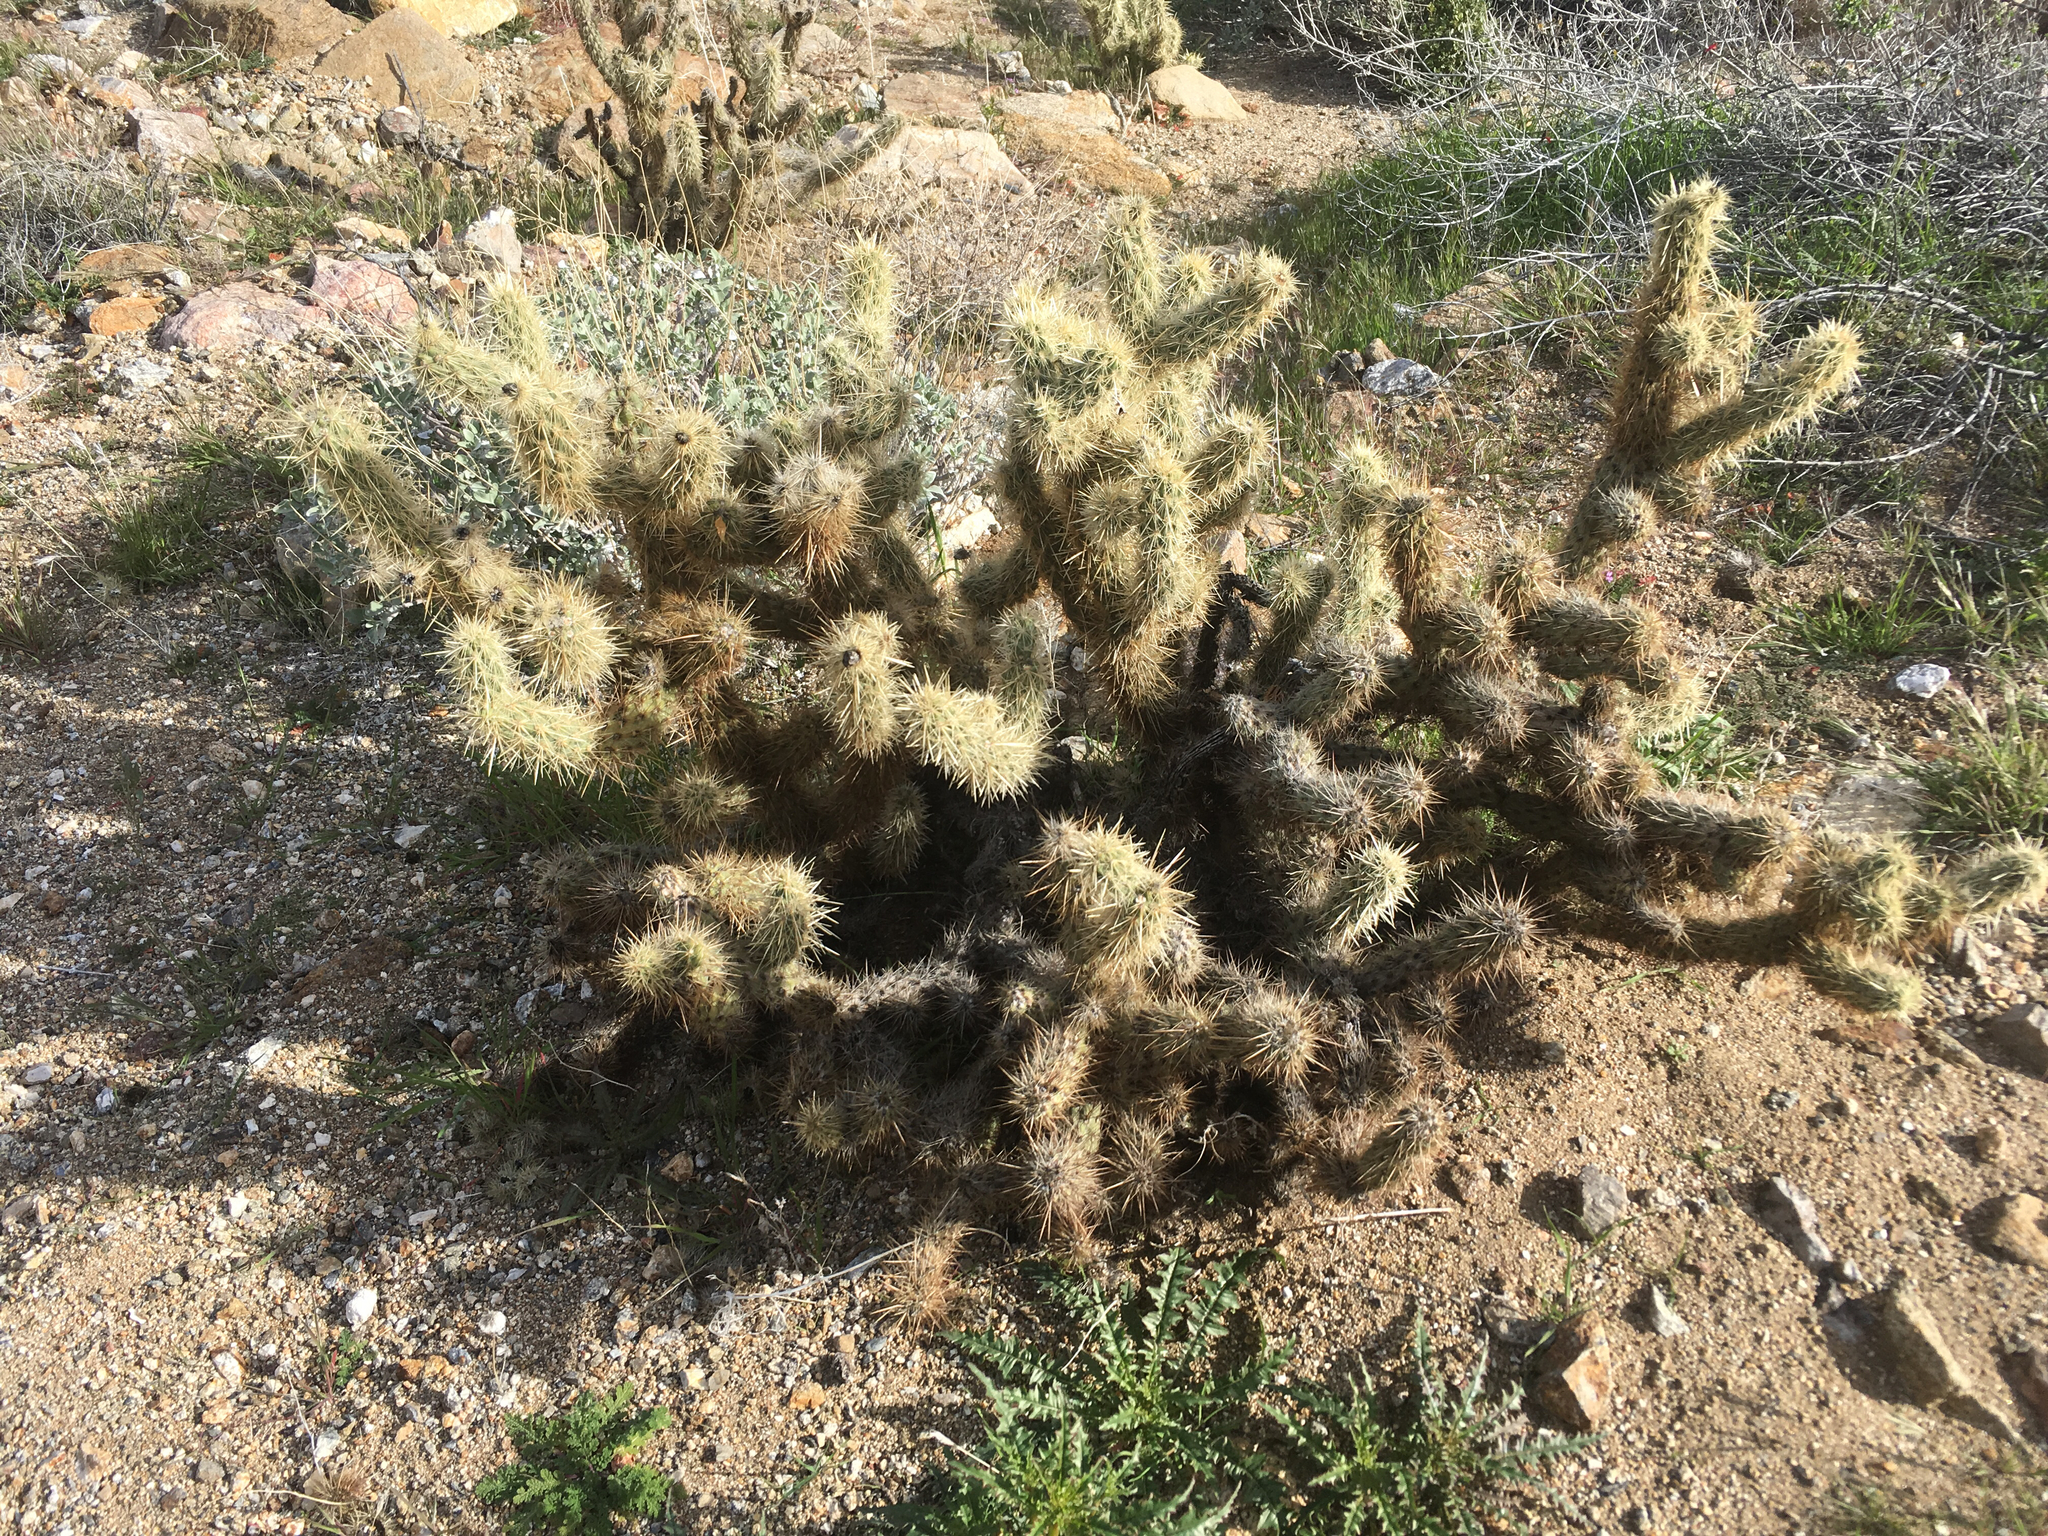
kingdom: Plantae
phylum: Tracheophyta
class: Magnoliopsida
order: Caryophyllales
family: Cactaceae
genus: Cylindropuntia
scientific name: Cylindropuntia echinocarpa
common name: Ground cholla
